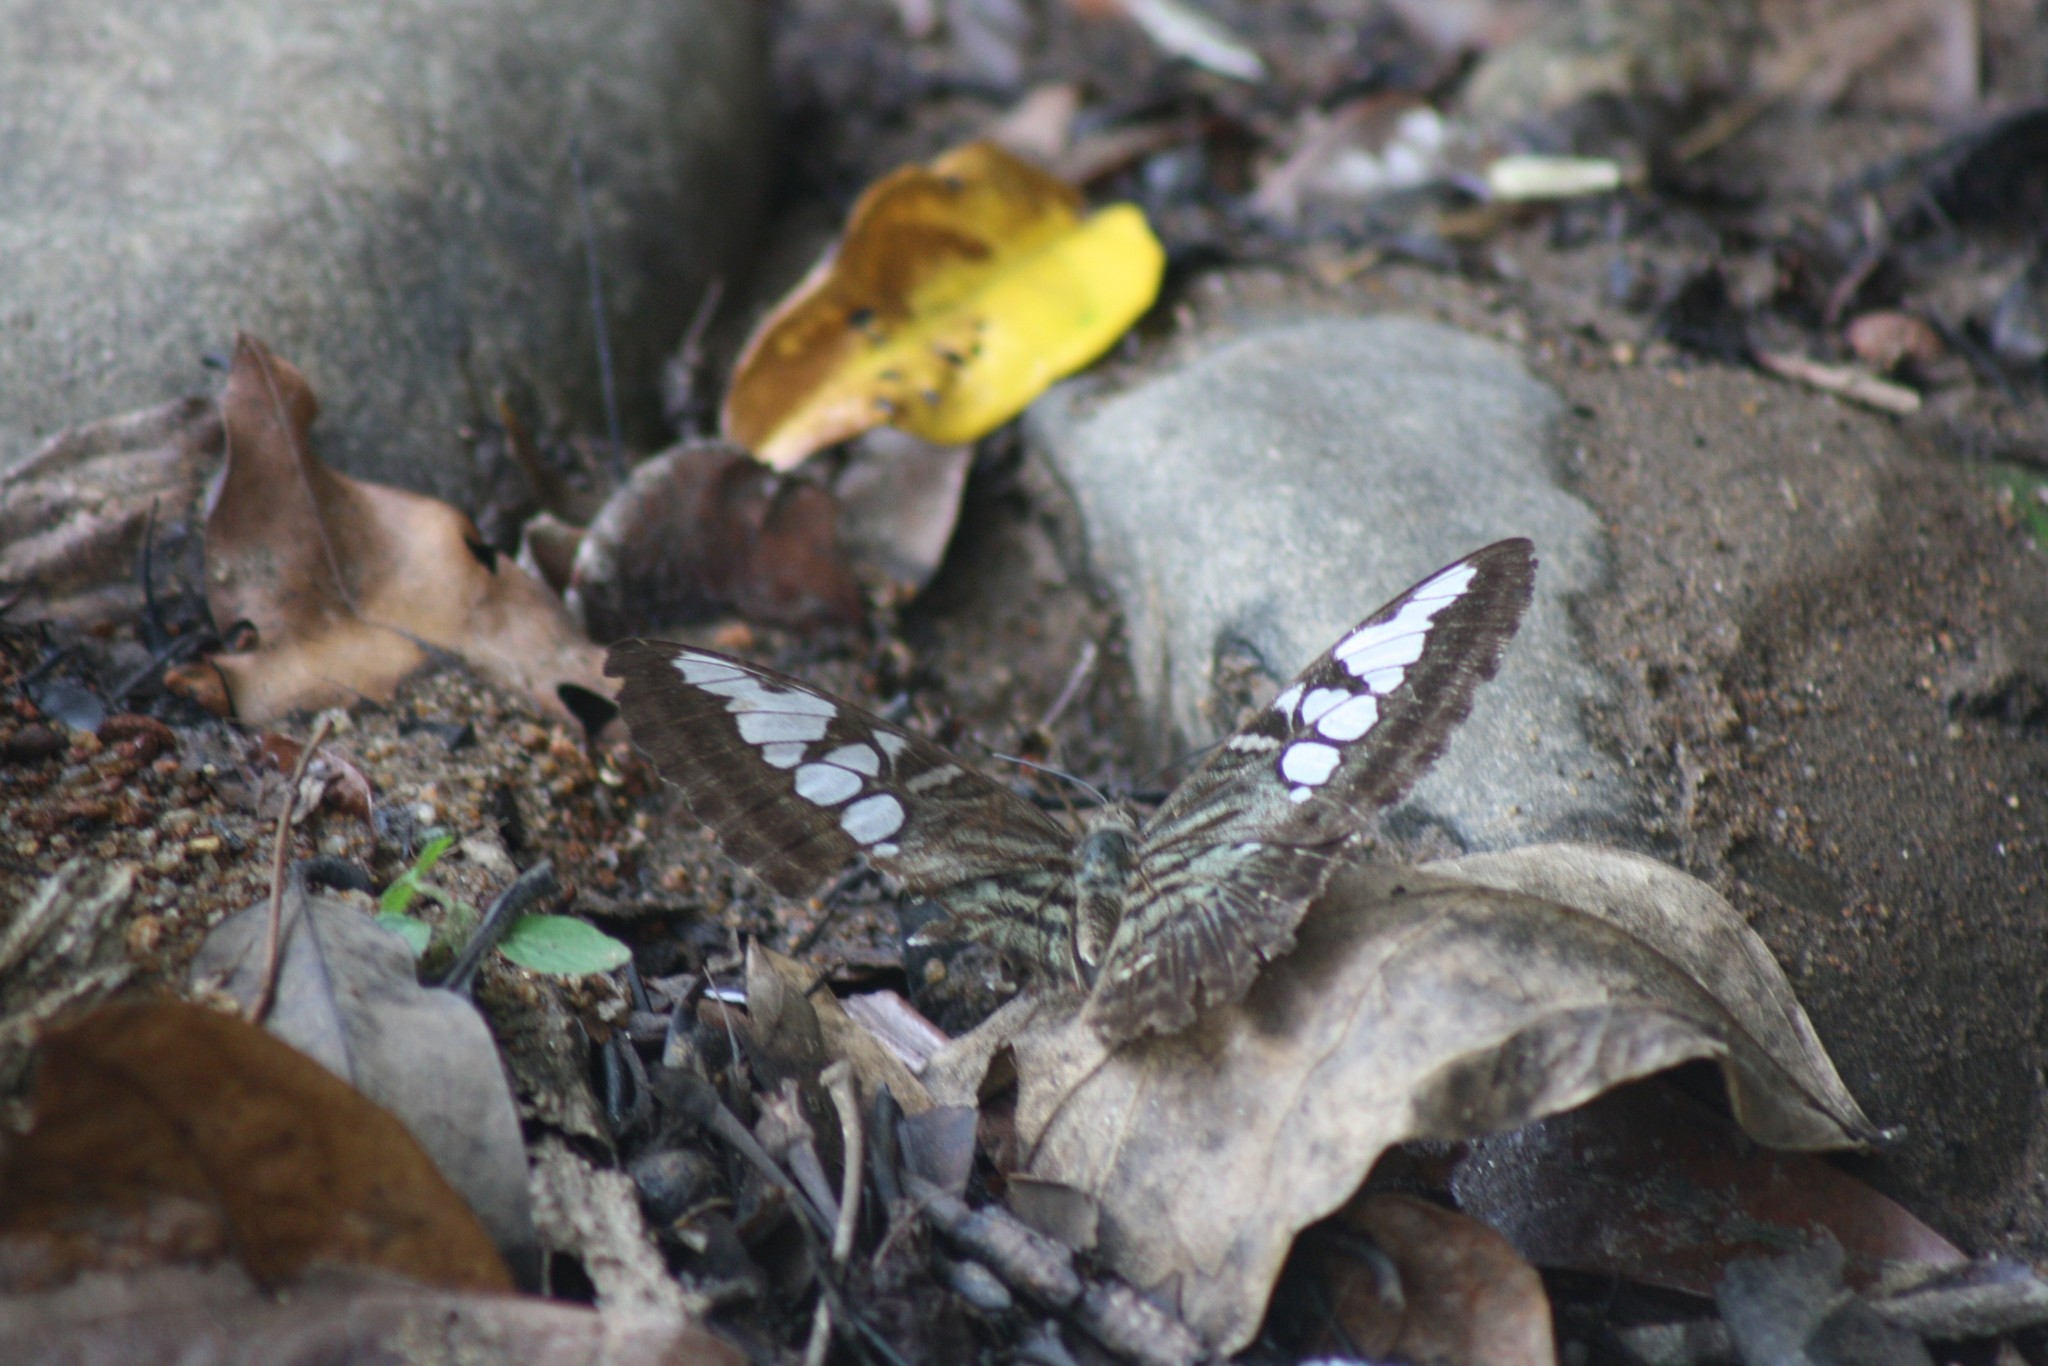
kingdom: Animalia
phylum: Arthropoda
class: Insecta
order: Lepidoptera
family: Nymphalidae
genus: Kallima
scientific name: Kallima sylvia
